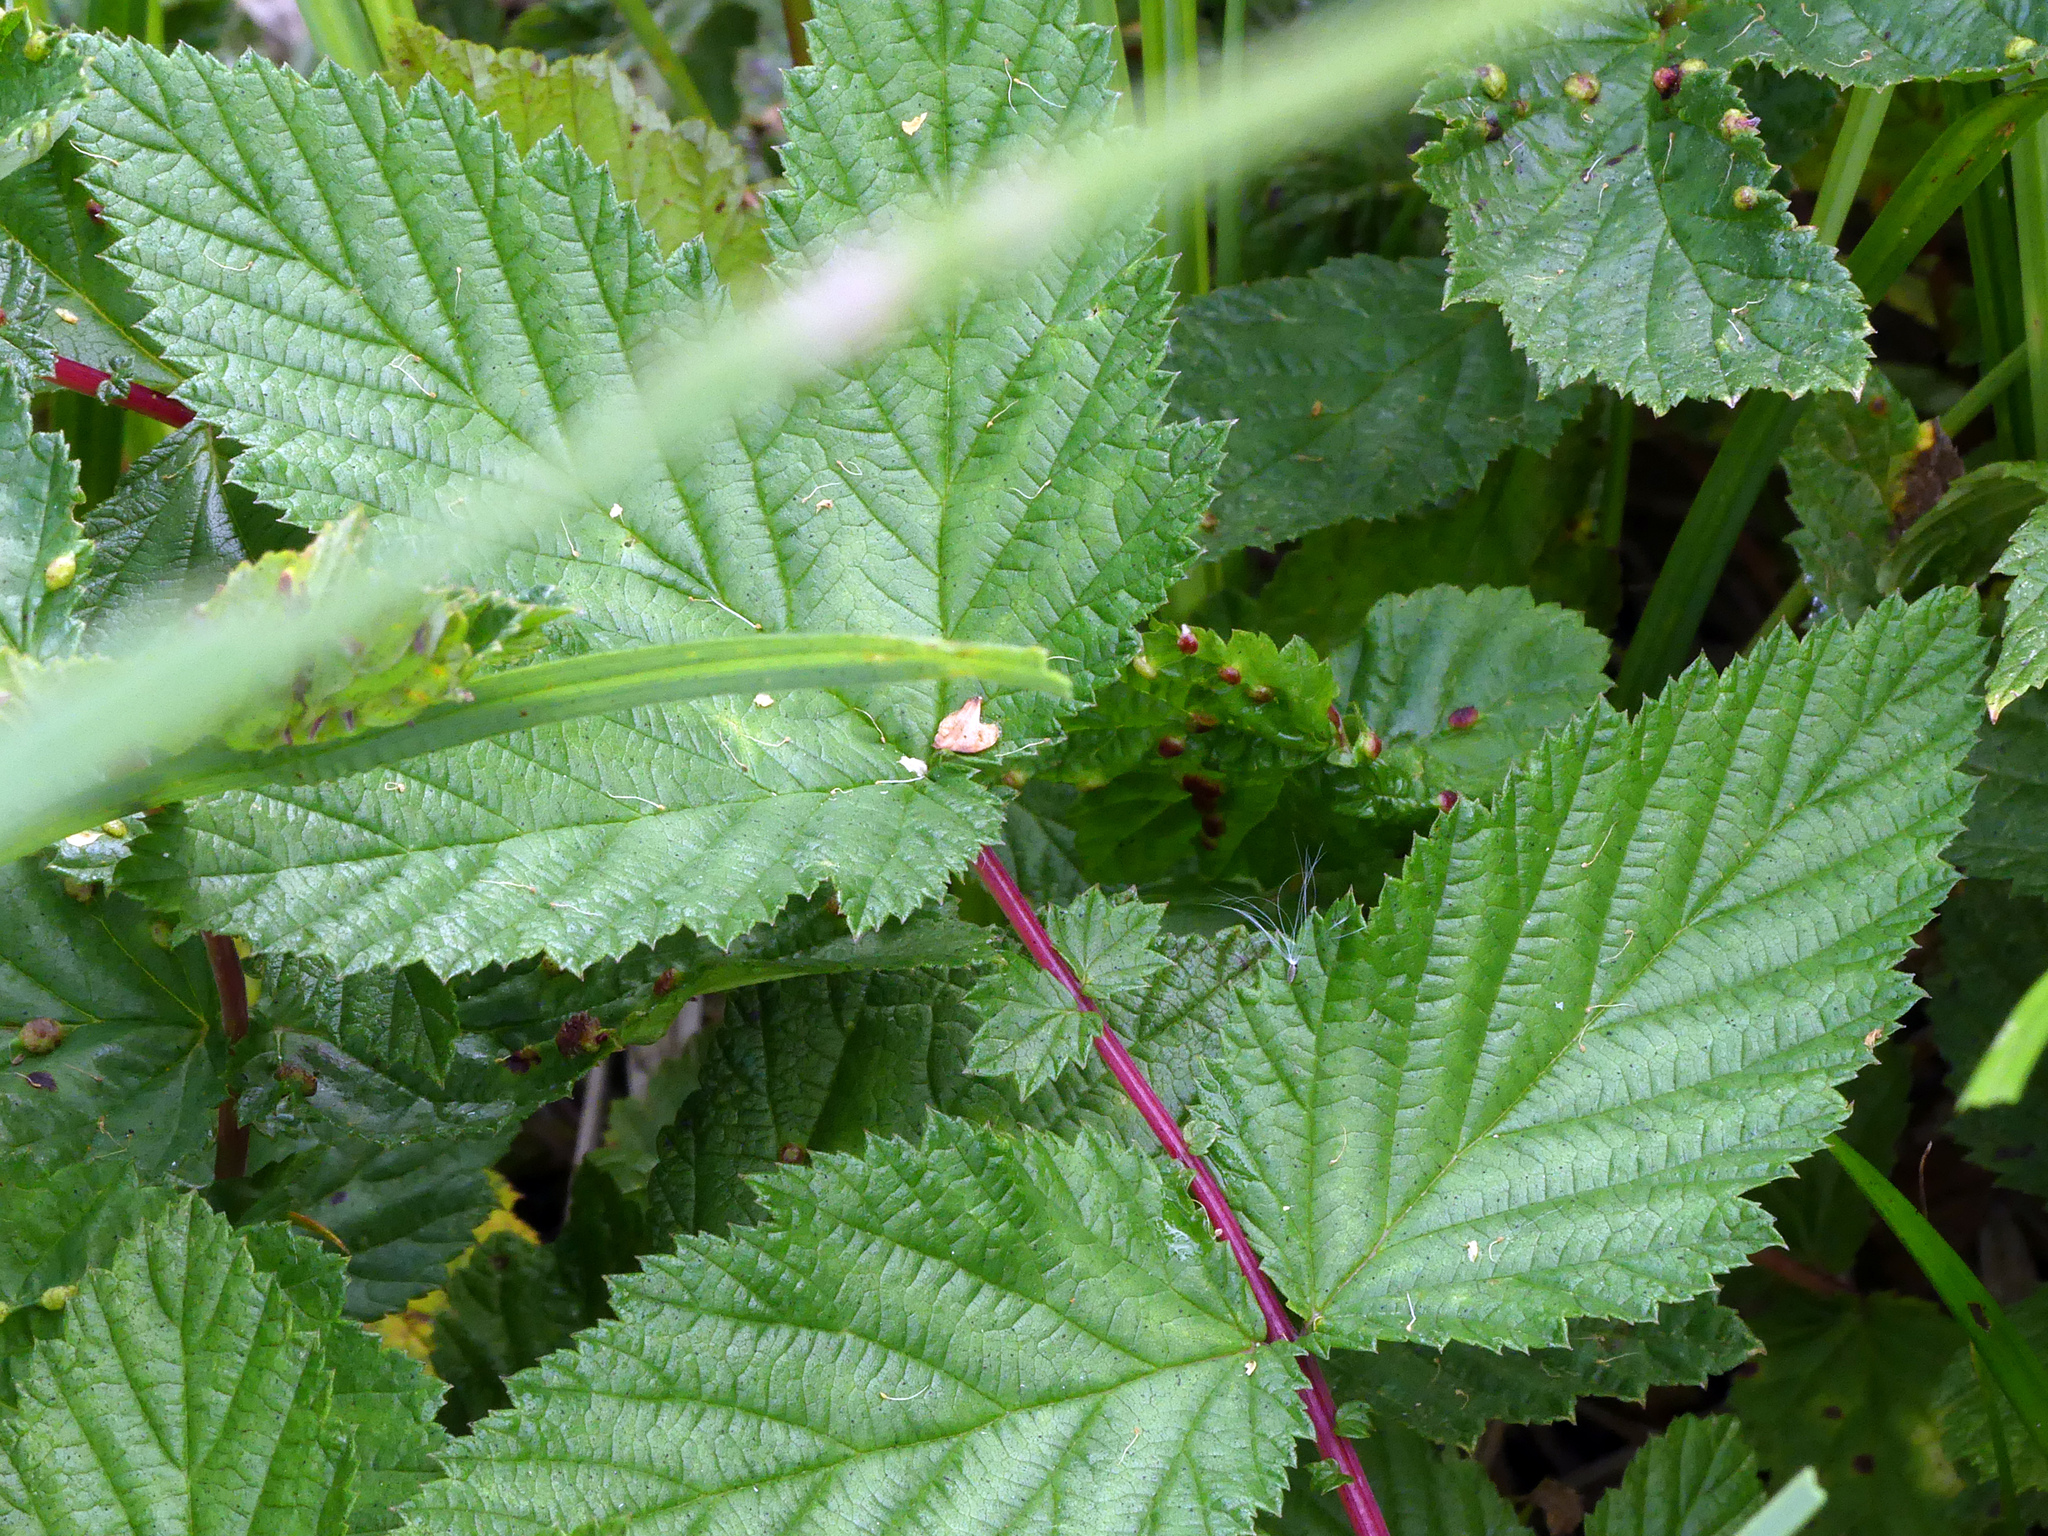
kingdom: Plantae
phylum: Tracheophyta
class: Magnoliopsida
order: Rosales
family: Rosaceae
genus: Filipendula
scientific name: Filipendula ulmaria
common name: Meadowsweet
